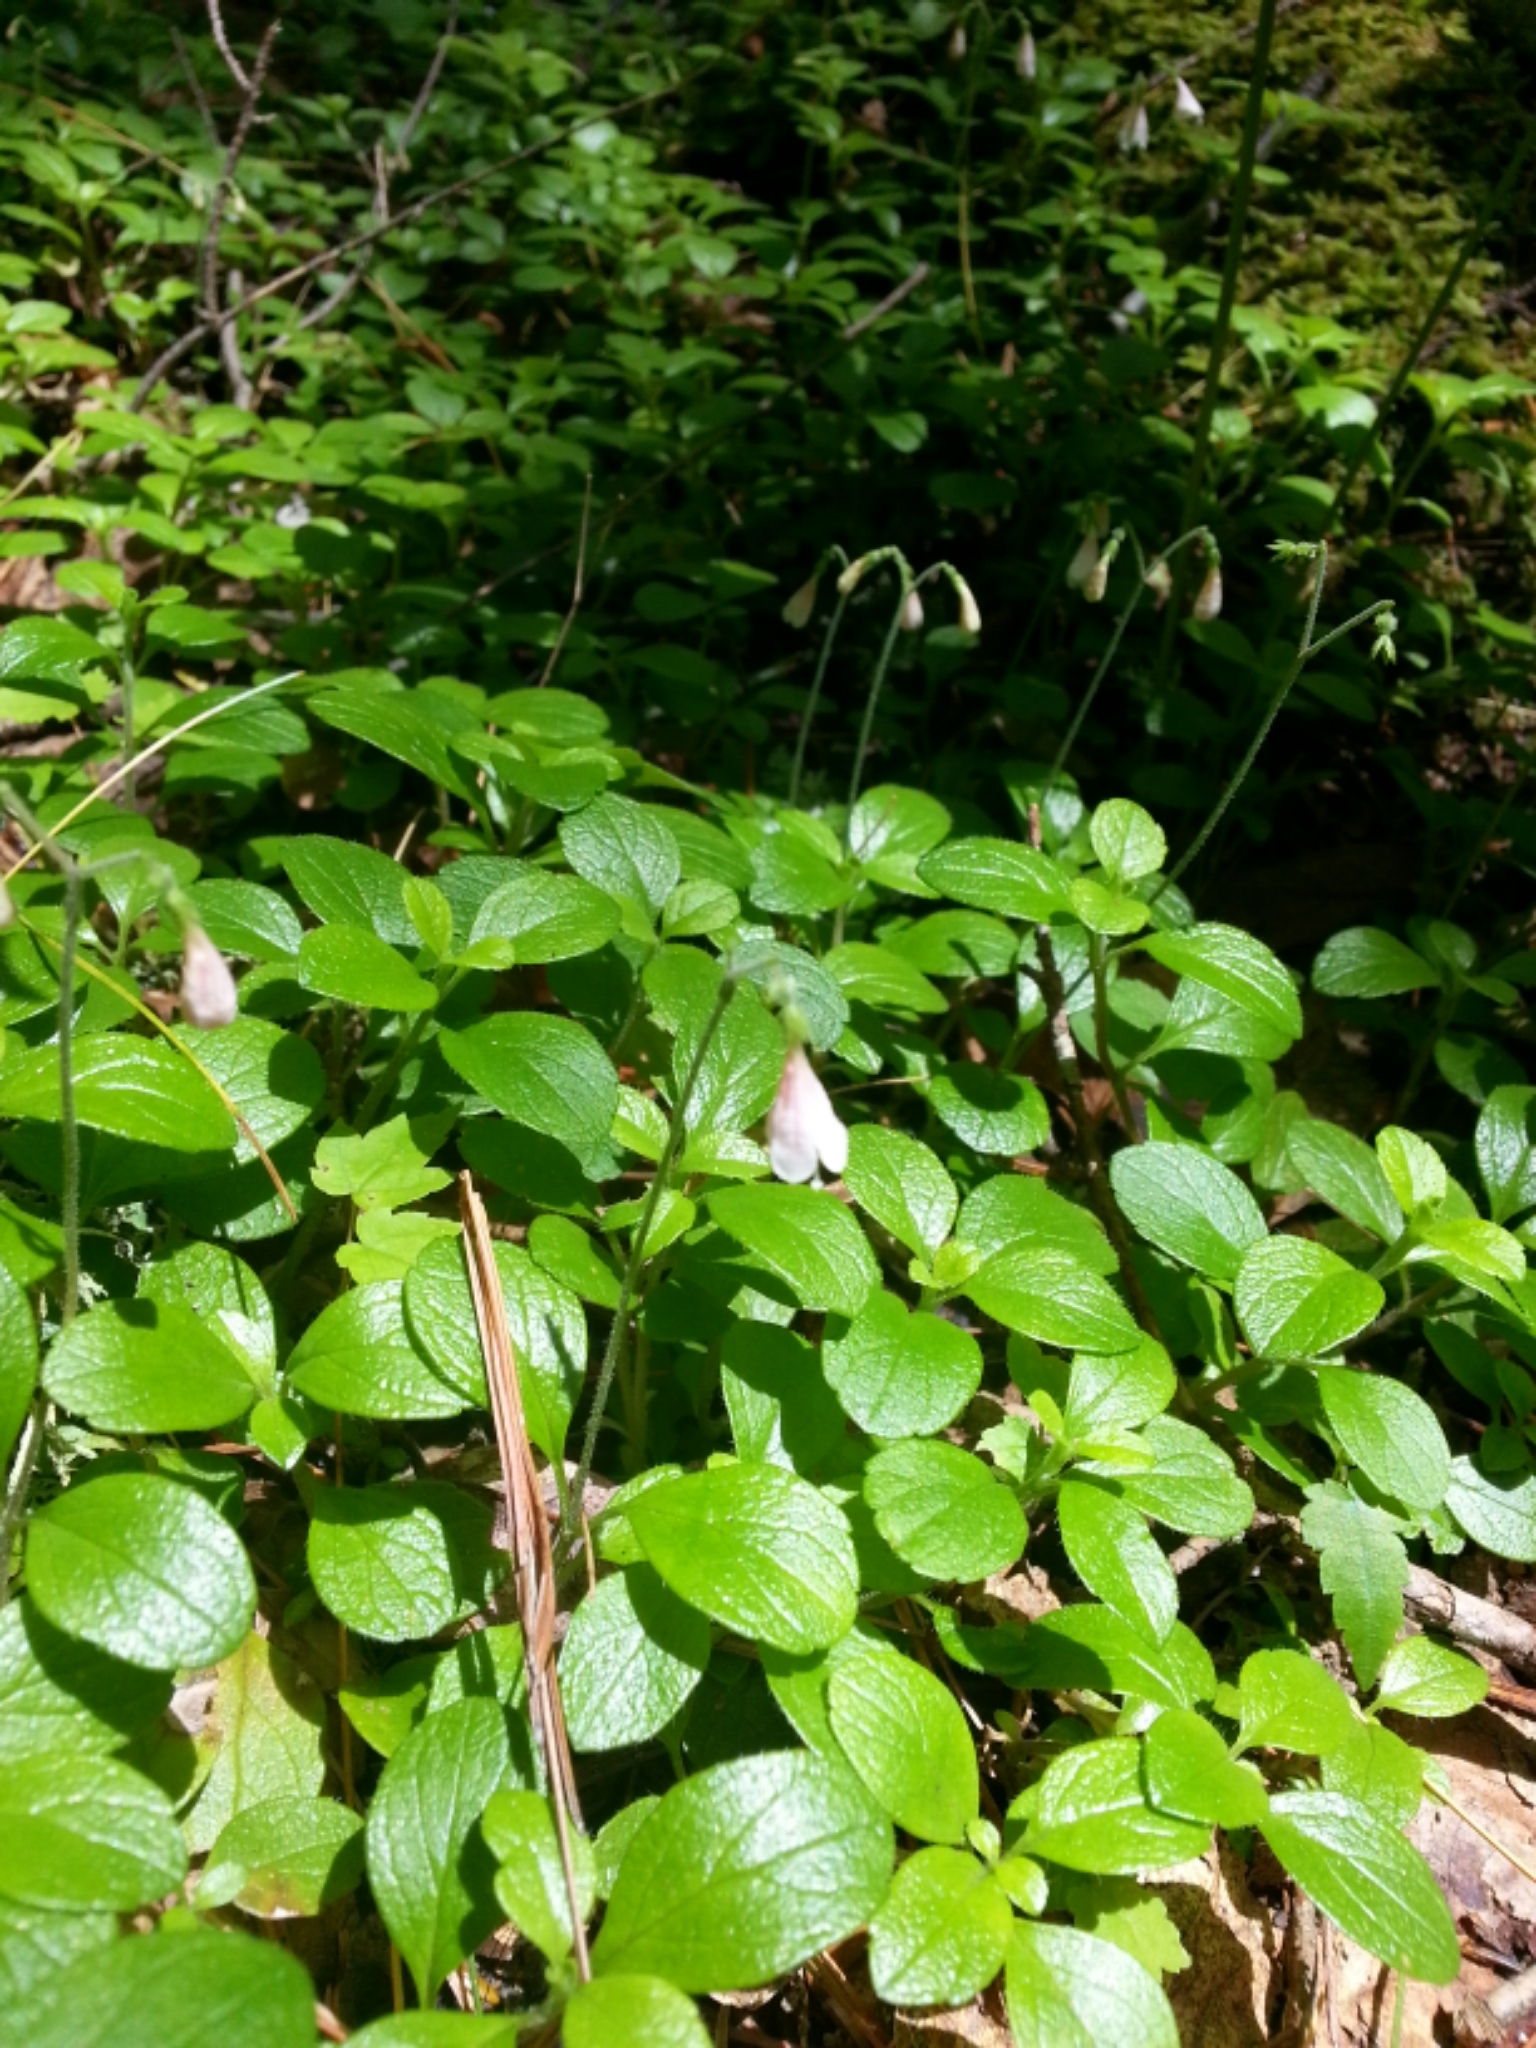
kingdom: Plantae
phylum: Tracheophyta
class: Magnoliopsida
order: Dipsacales
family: Caprifoliaceae
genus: Linnaea
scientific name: Linnaea borealis
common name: Twinflower
